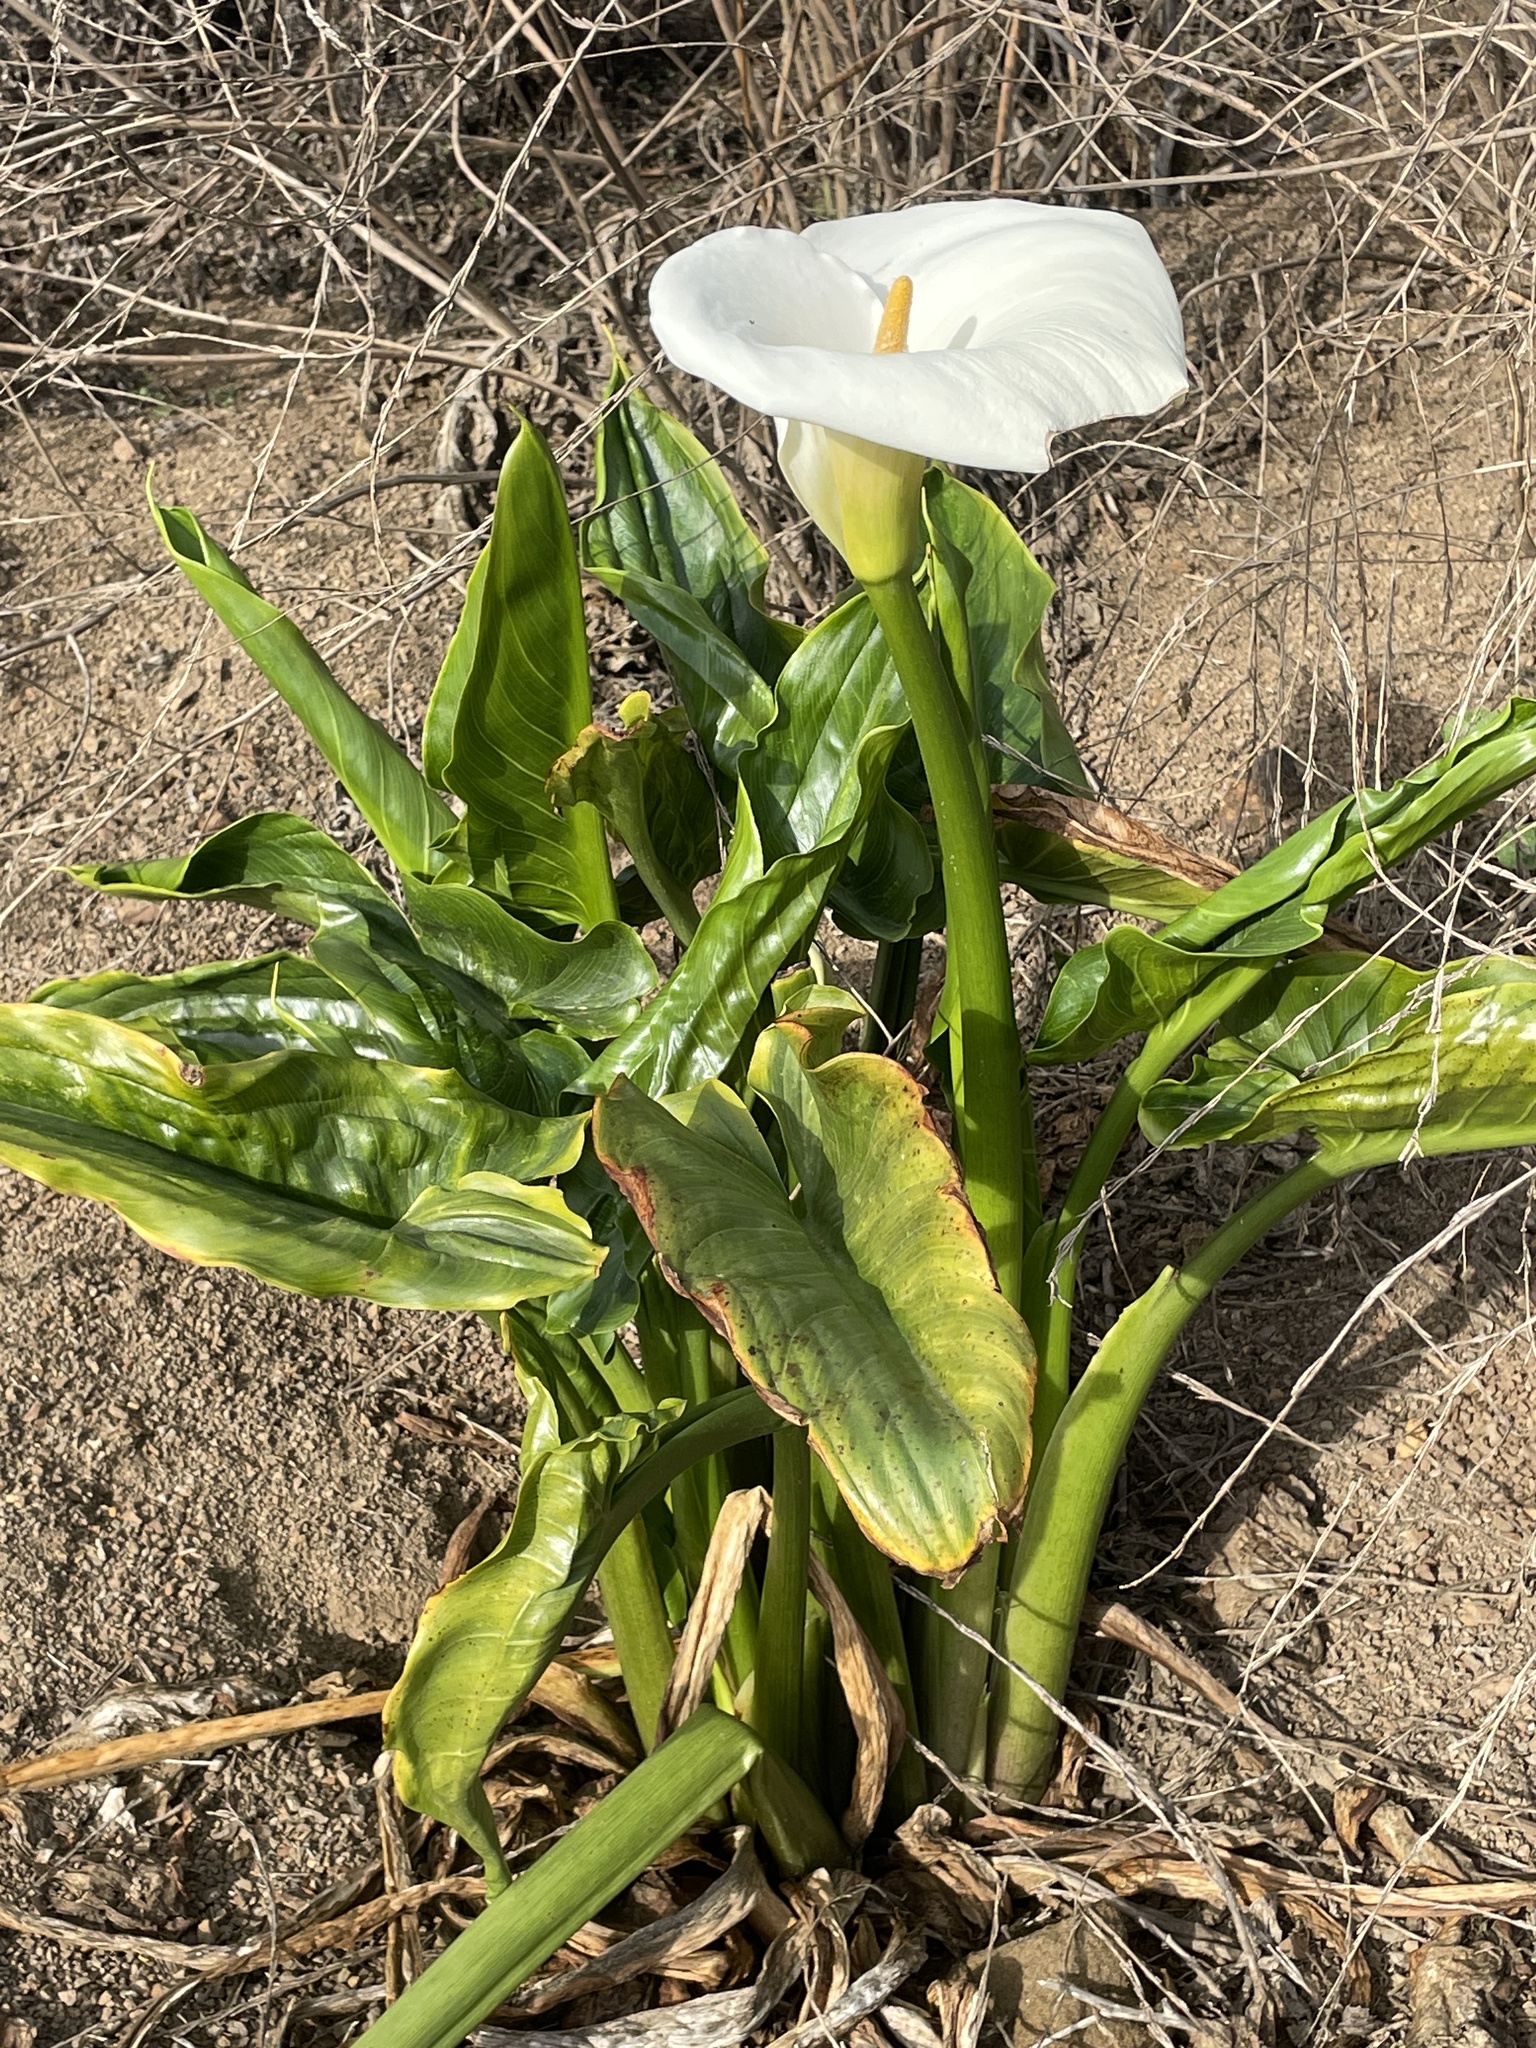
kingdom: Plantae
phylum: Tracheophyta
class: Liliopsida
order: Alismatales
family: Araceae
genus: Zantedeschia
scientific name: Zantedeschia aethiopica
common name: Altar-lily
